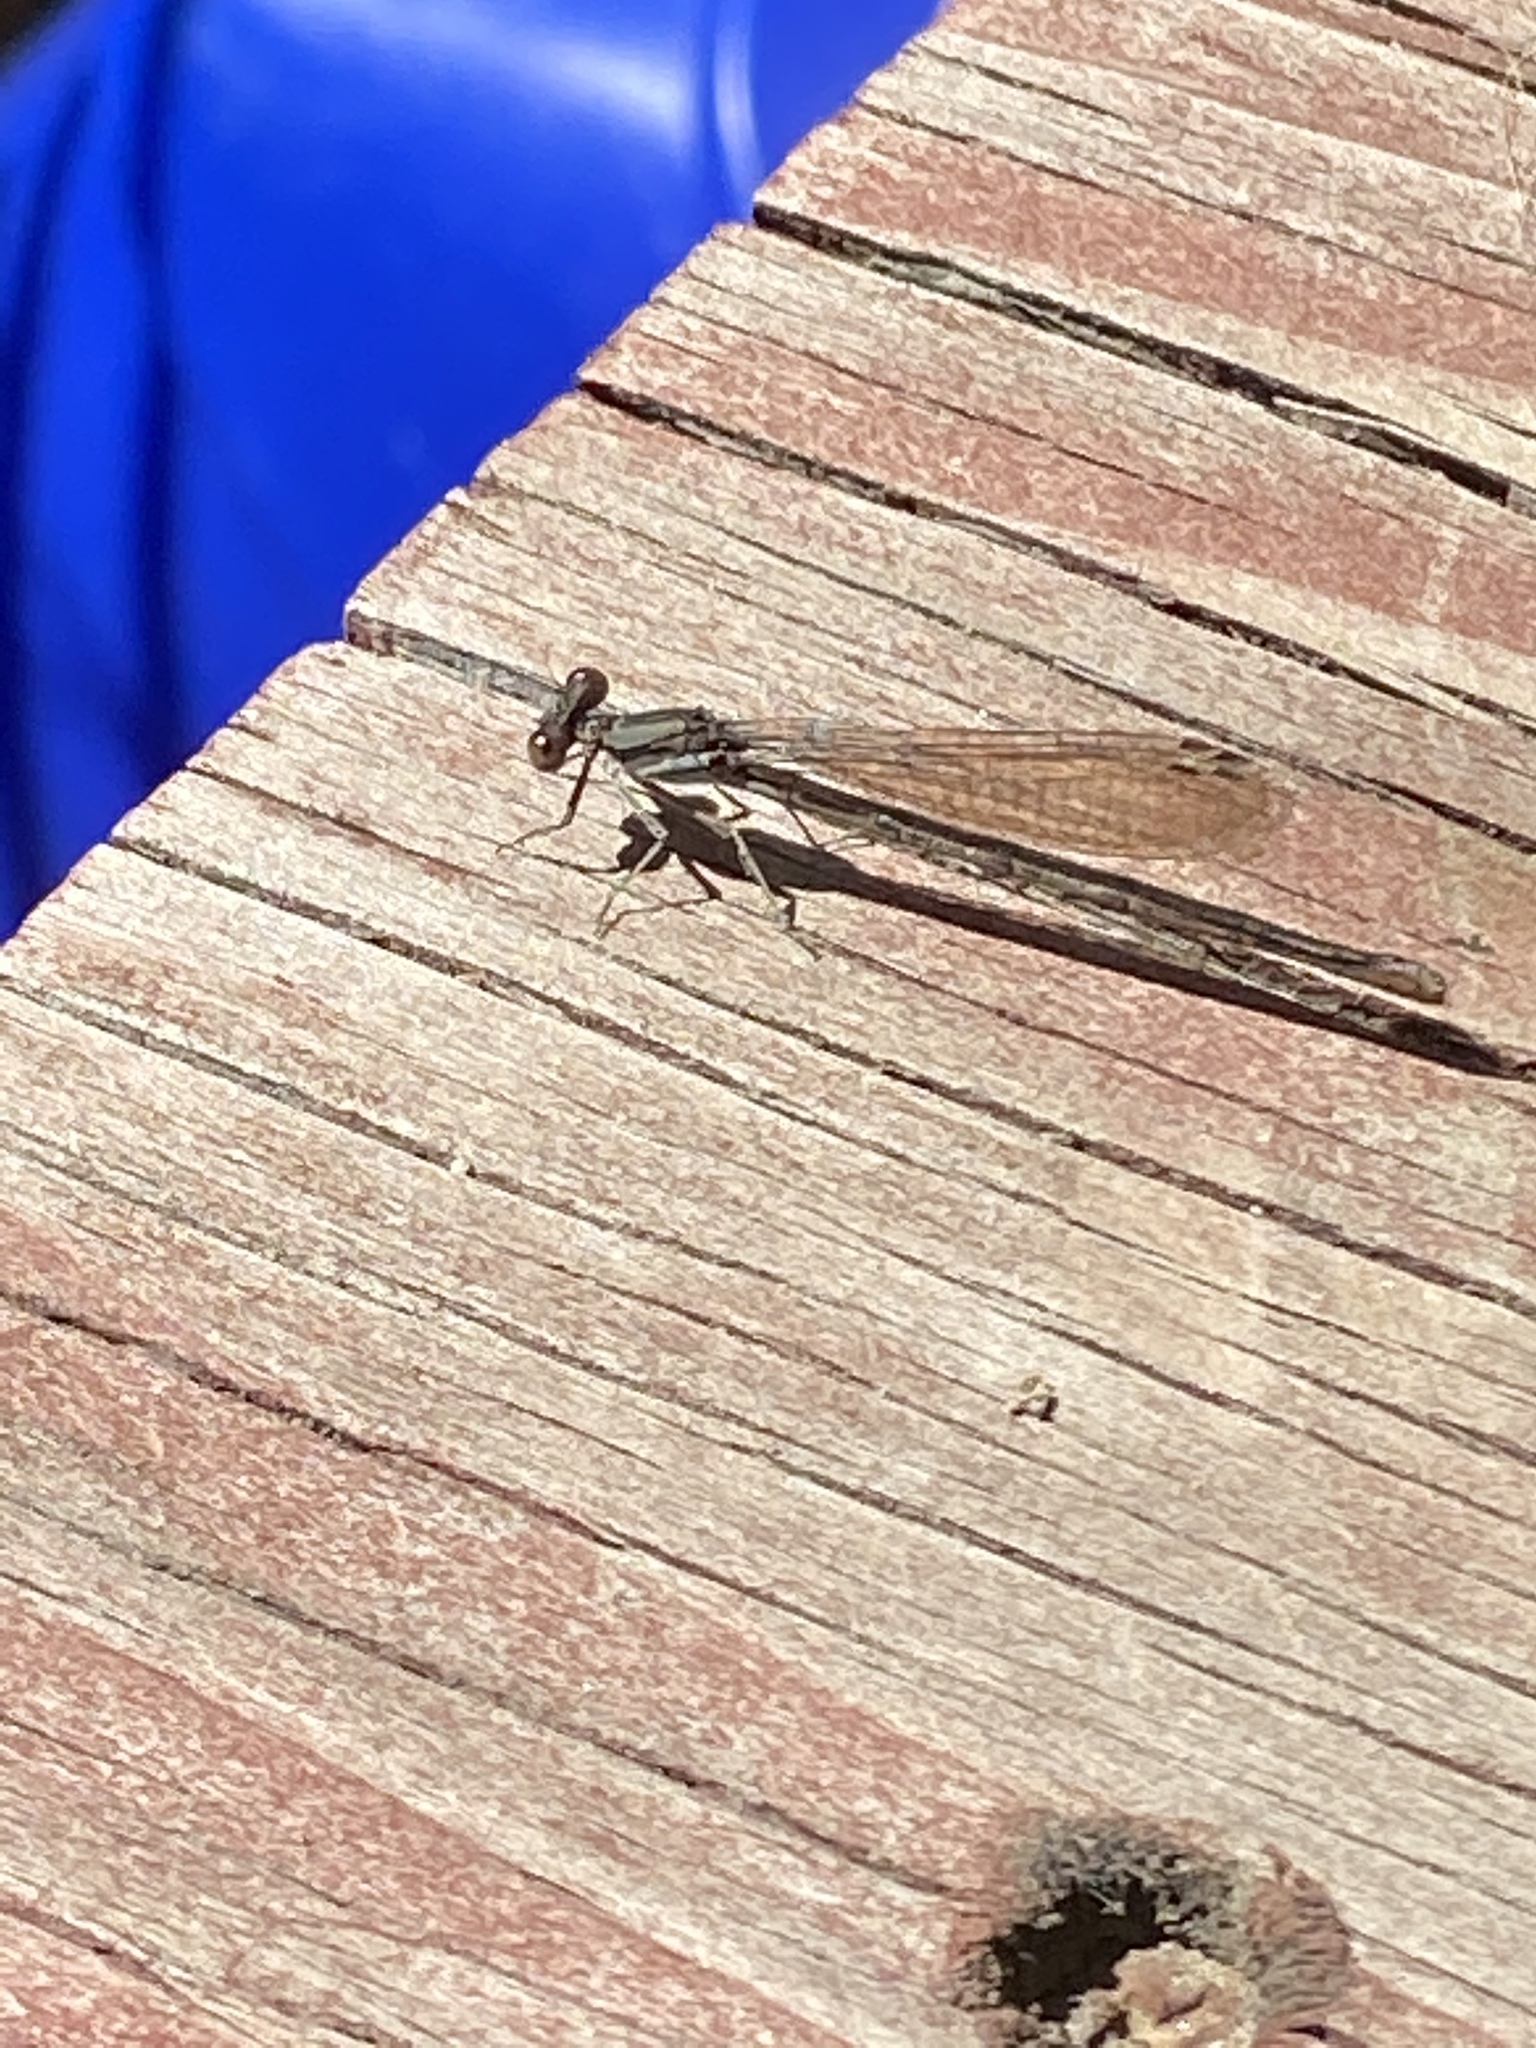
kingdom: Animalia
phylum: Arthropoda
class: Insecta
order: Odonata
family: Coenagrionidae
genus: Argia
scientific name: Argia fumipennis
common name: Variable dancer
